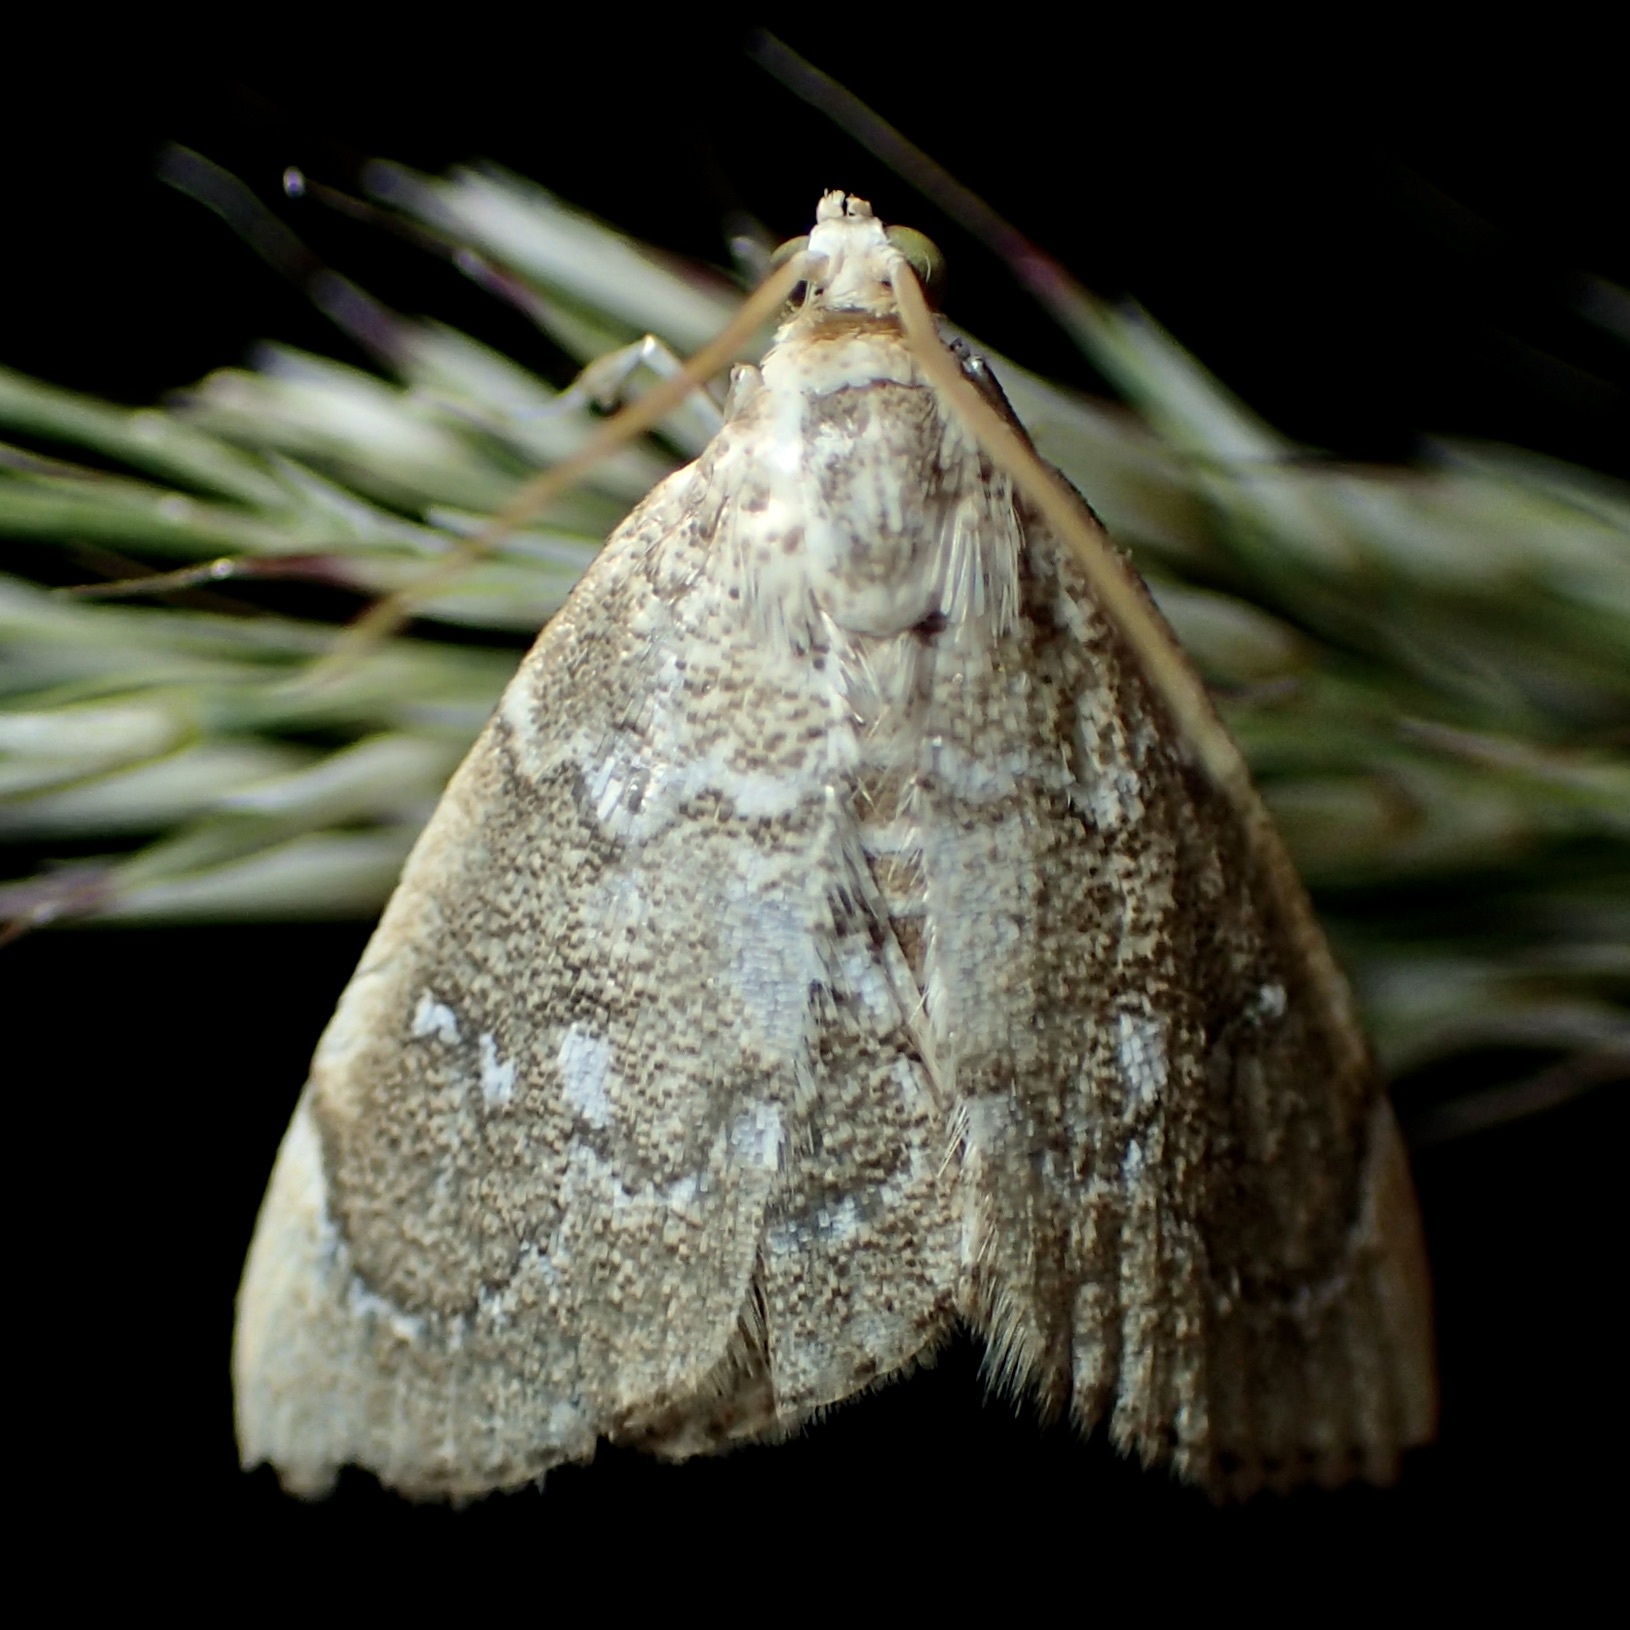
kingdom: Animalia
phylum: Arthropoda
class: Insecta
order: Lepidoptera
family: Crambidae
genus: Nephrogramma
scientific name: Nephrogramma separata
